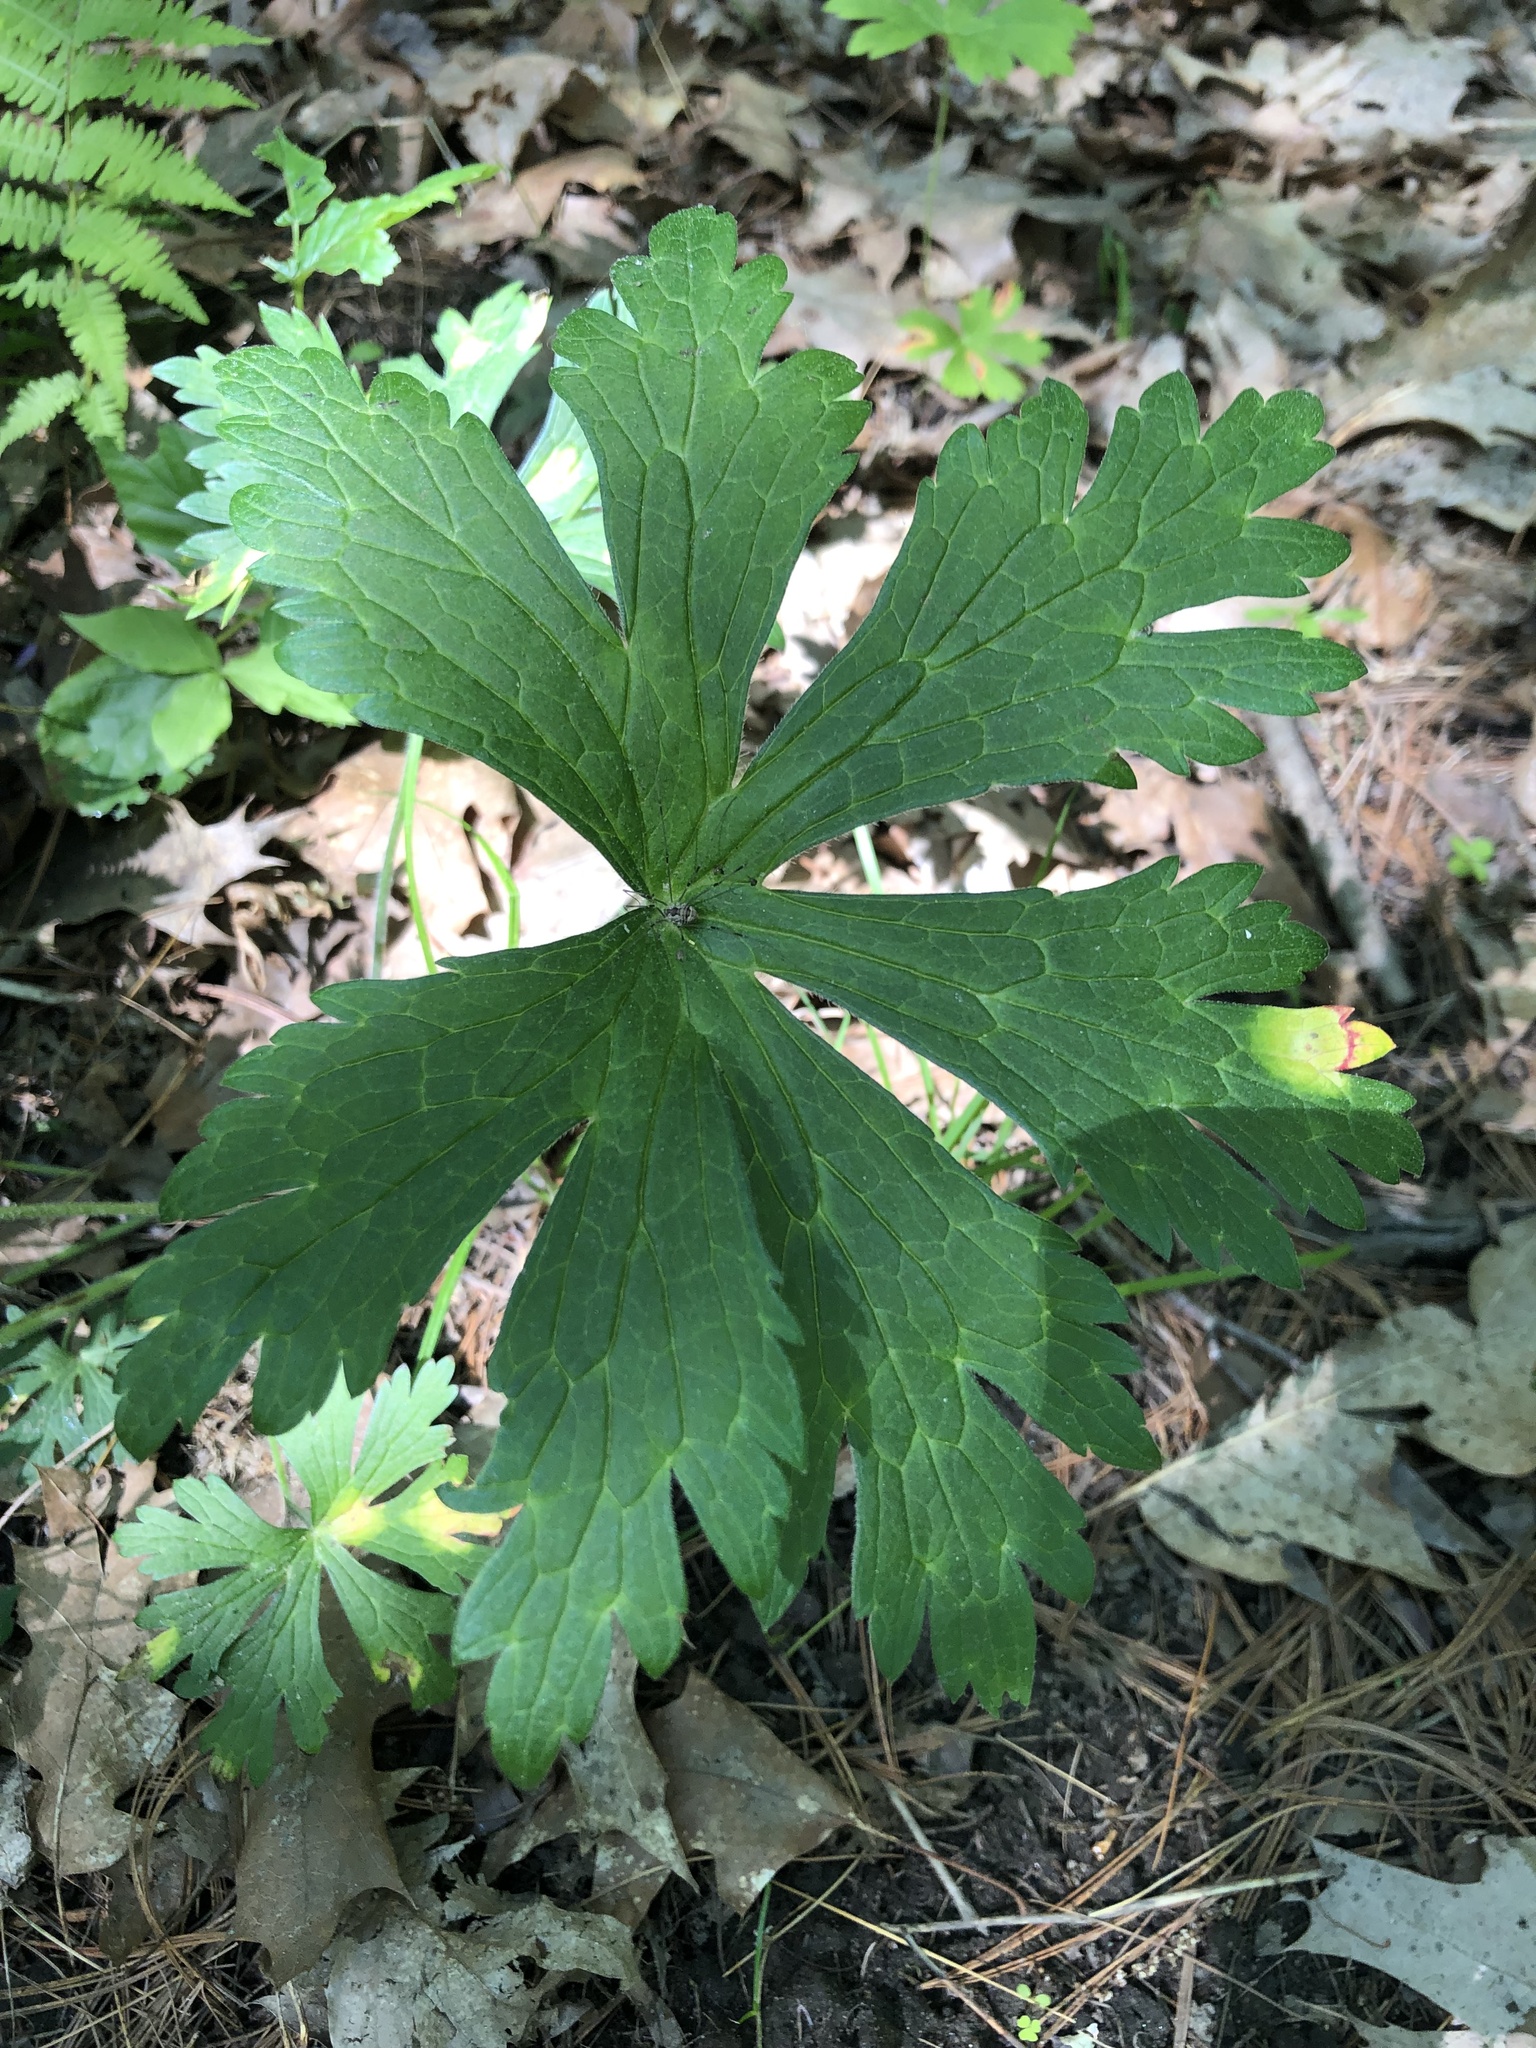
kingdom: Plantae
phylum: Tracheophyta
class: Magnoliopsida
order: Geraniales
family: Geraniaceae
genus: Geranium
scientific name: Geranium maculatum
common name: Spotted geranium
